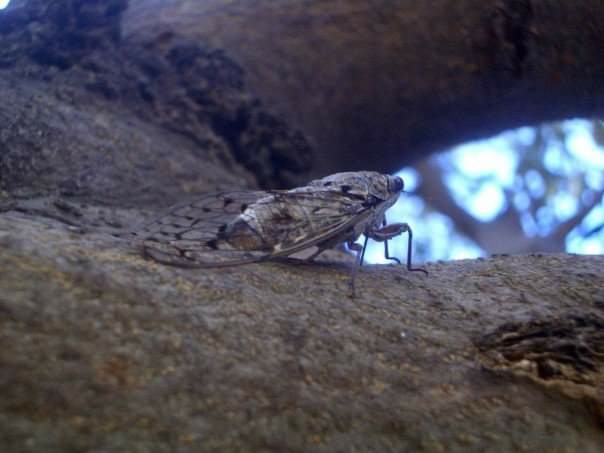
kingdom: Animalia
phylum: Arthropoda
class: Insecta
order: Hemiptera
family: Cicadidae
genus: Cicada
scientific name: Cicada orni
